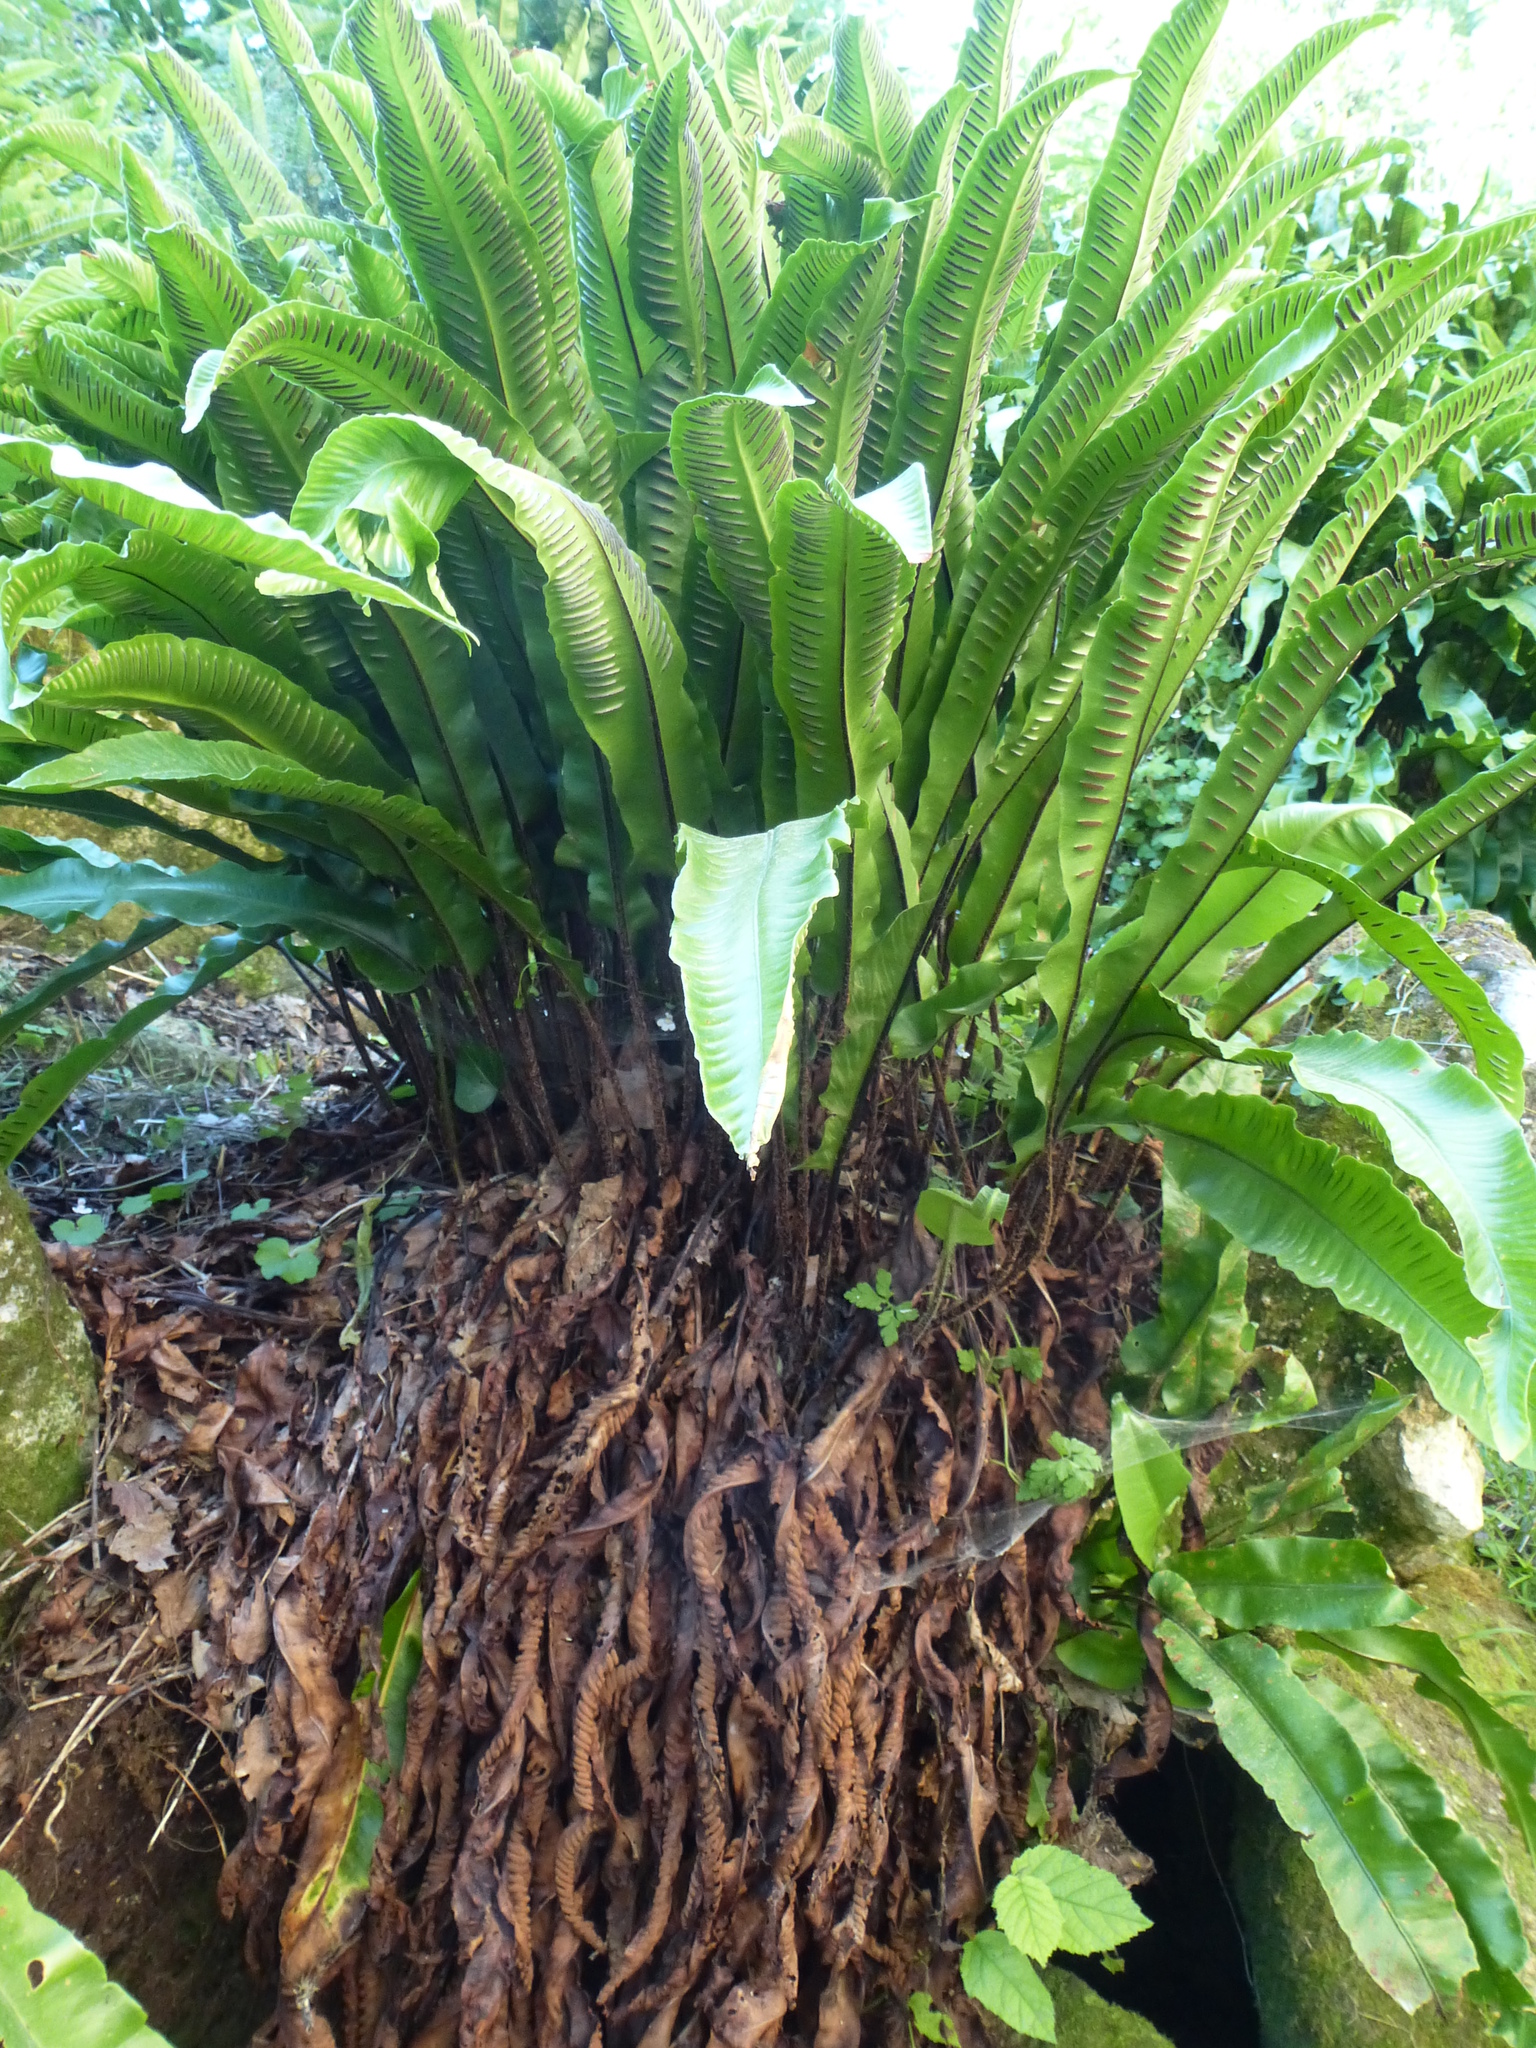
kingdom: Plantae
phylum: Tracheophyta
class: Polypodiopsida
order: Polypodiales
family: Aspleniaceae
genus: Asplenium
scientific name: Asplenium scolopendrium
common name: Hart's-tongue fern
